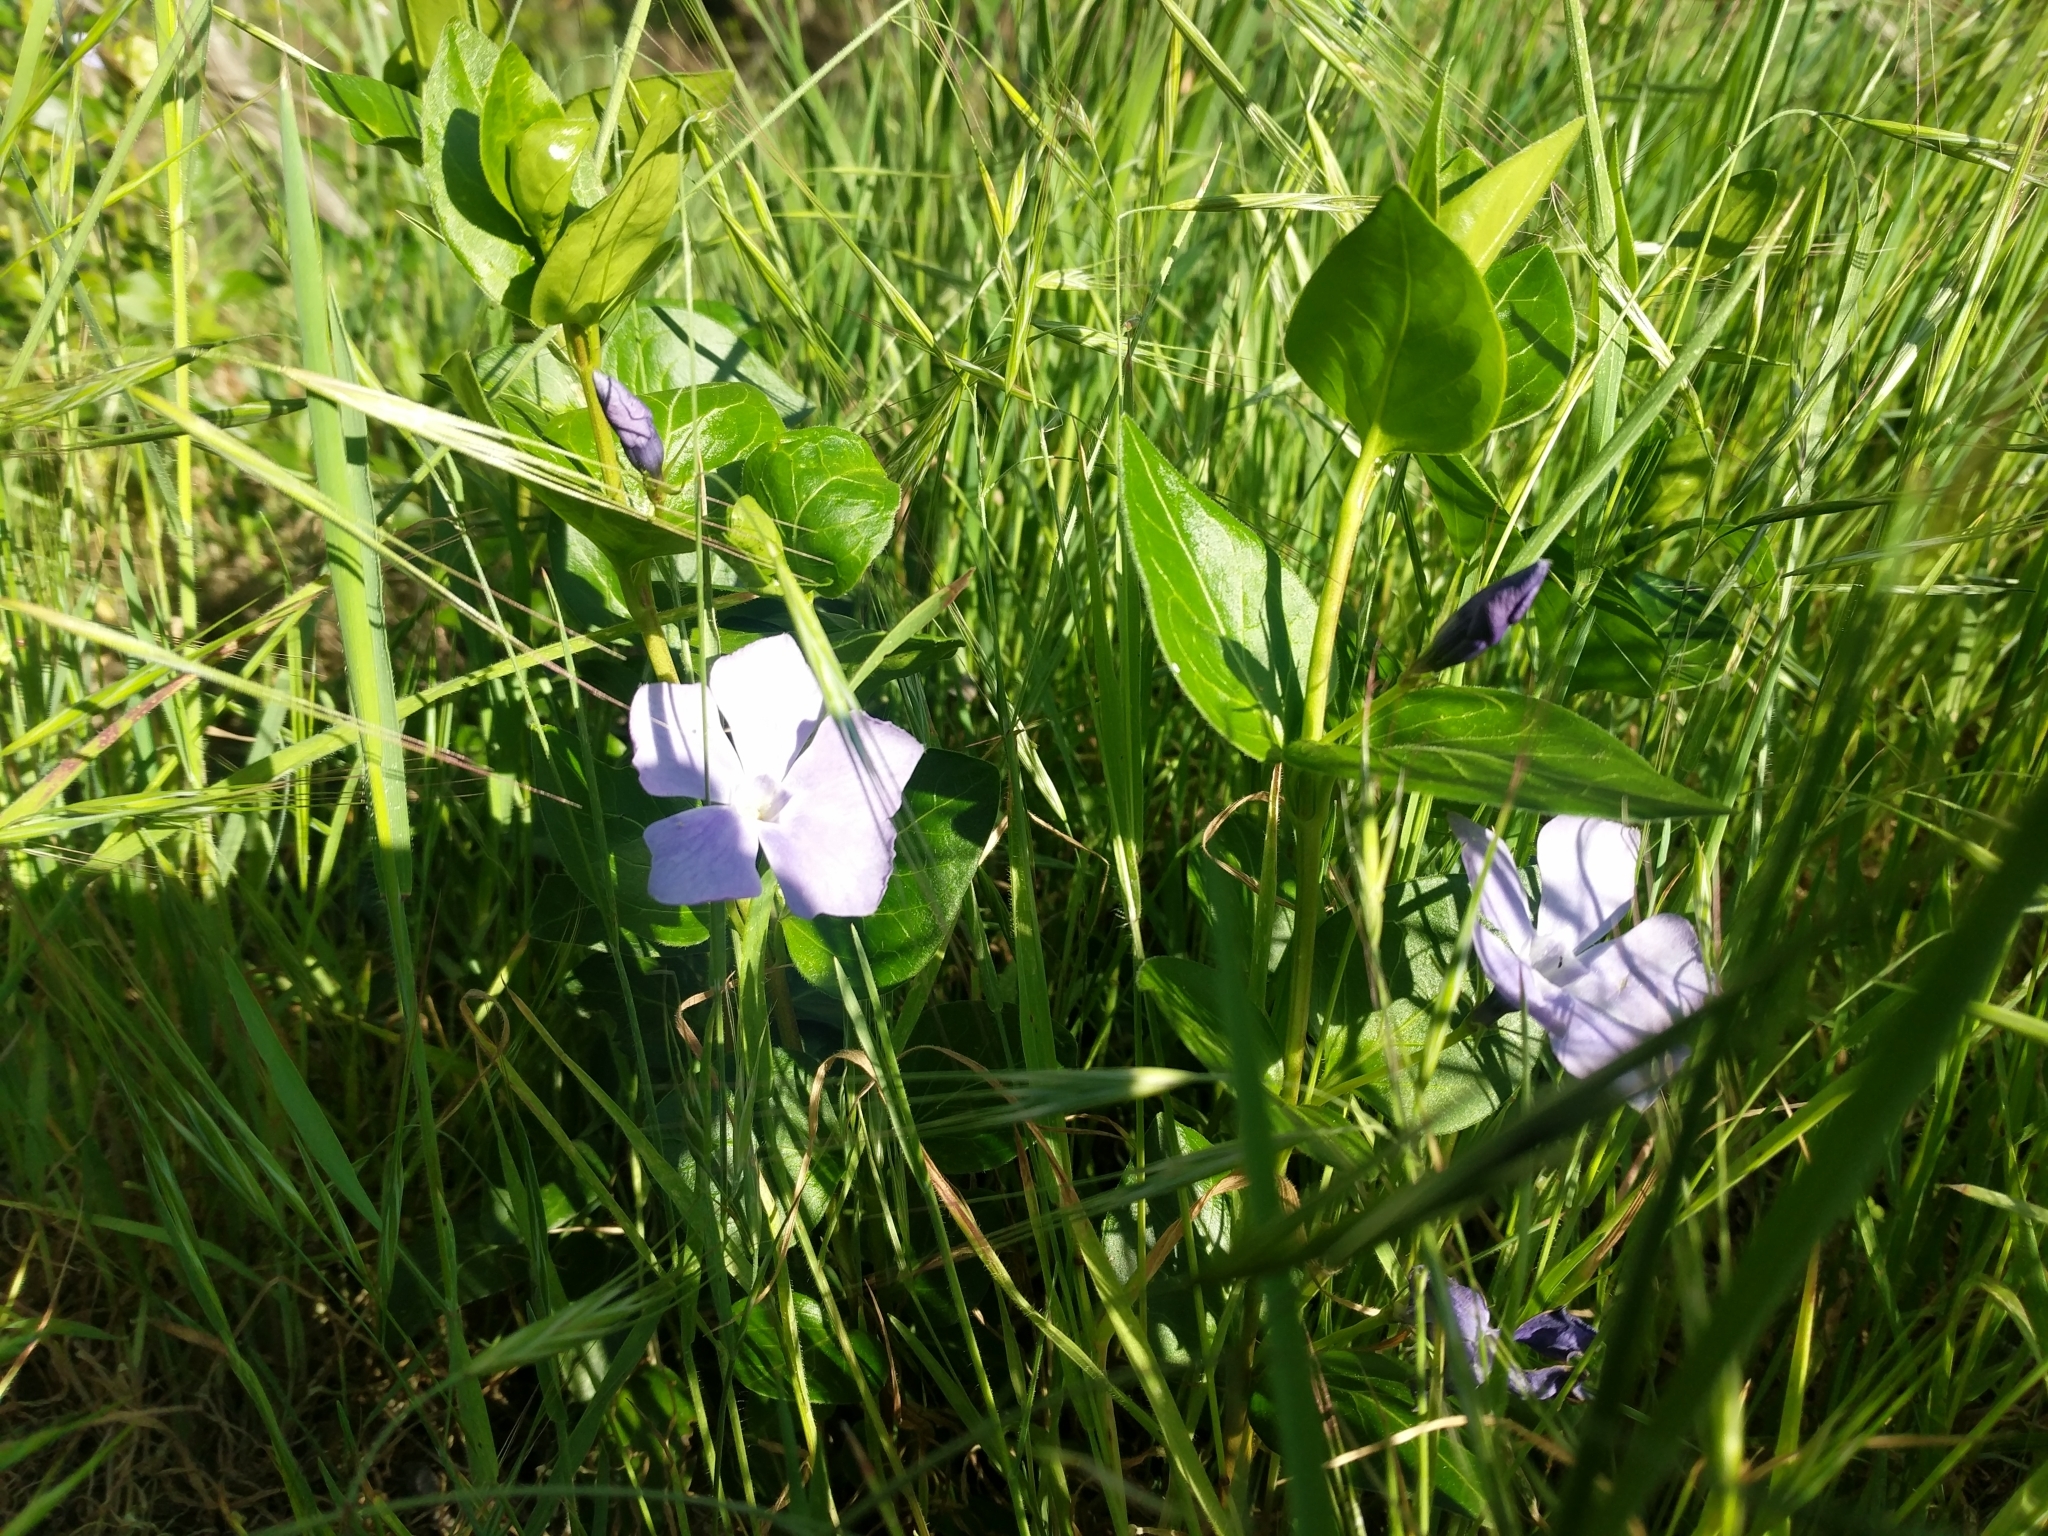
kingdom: Plantae
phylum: Tracheophyta
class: Magnoliopsida
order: Gentianales
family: Apocynaceae
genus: Vinca
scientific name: Vinca major
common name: Greater periwinkle
